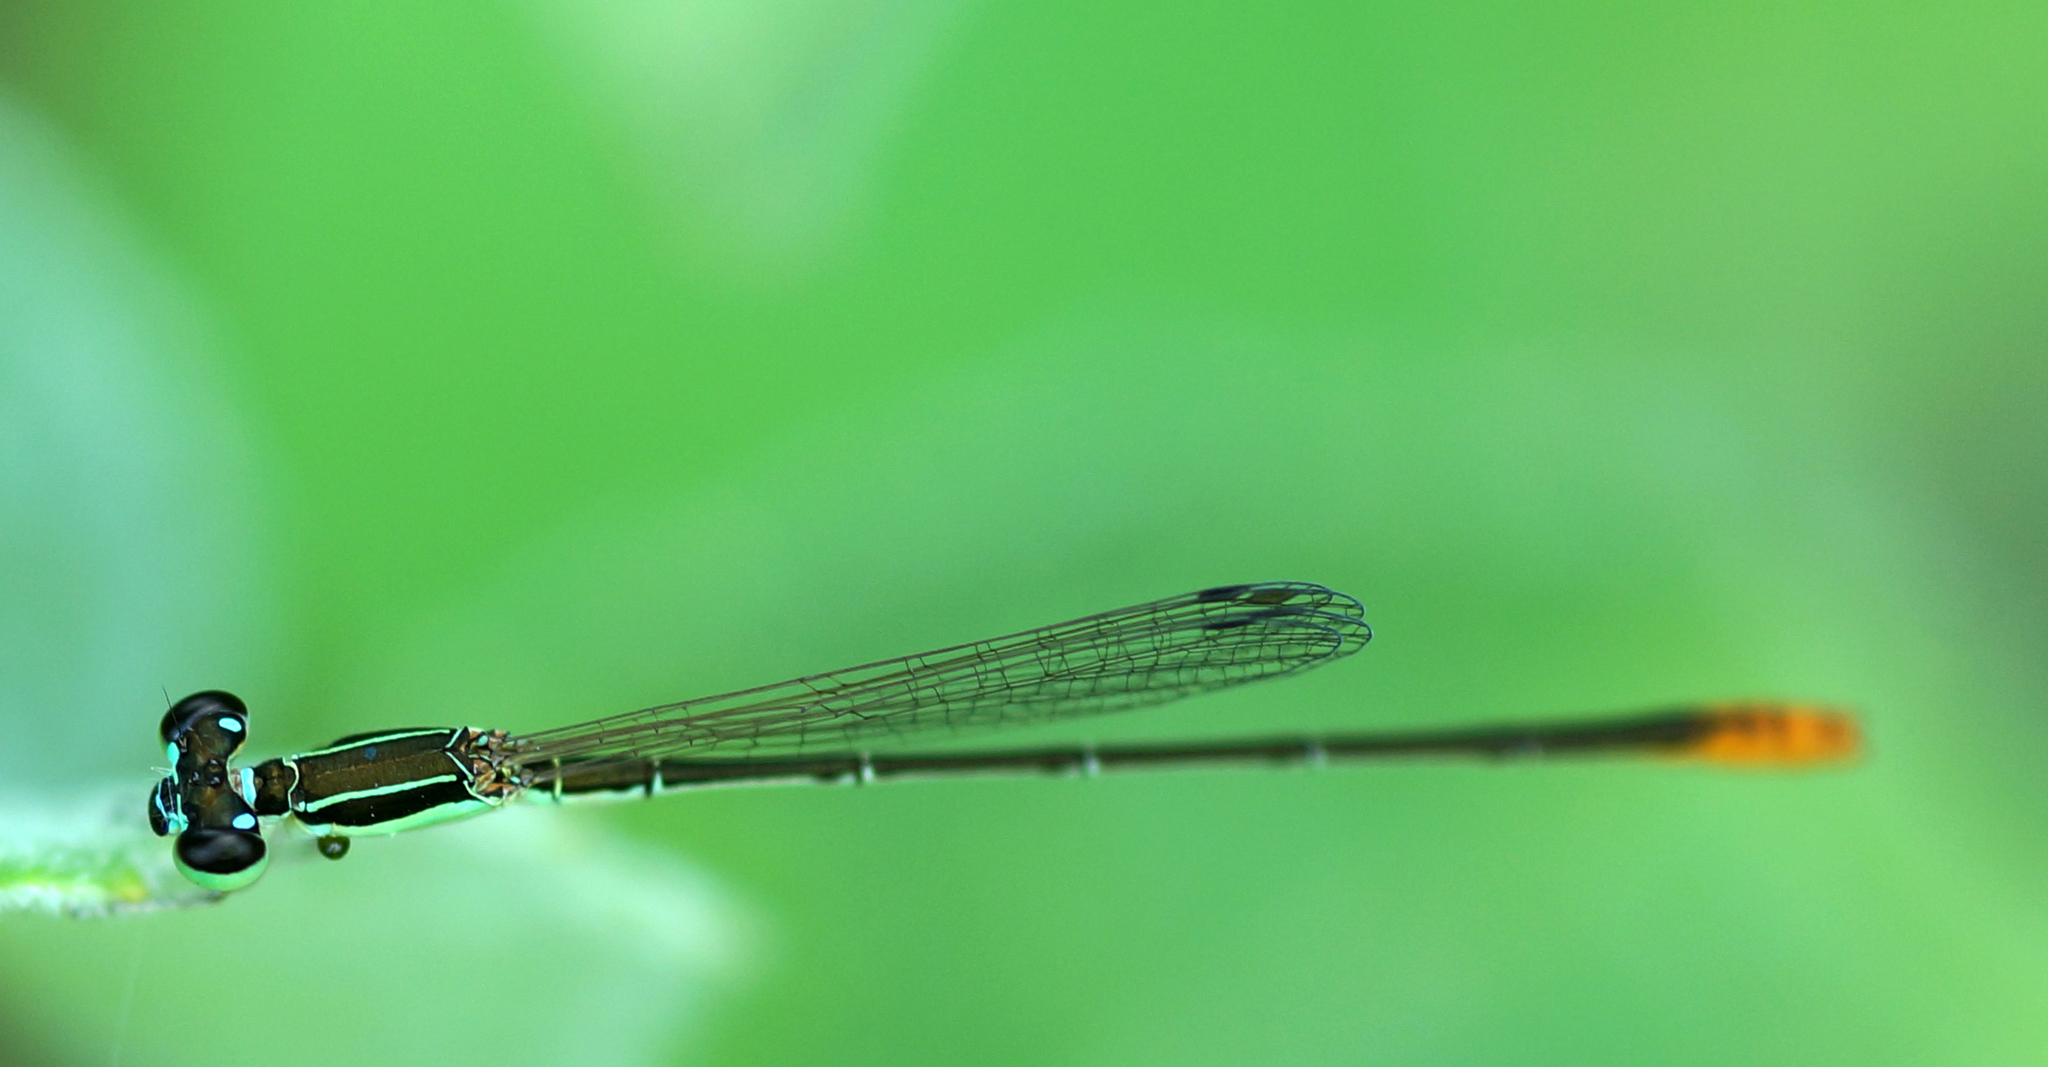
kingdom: Animalia
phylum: Arthropoda
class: Insecta
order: Odonata
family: Coenagrionidae
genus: Agriocnemis
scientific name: Agriocnemis pygmaea
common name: Pygmy wisp
